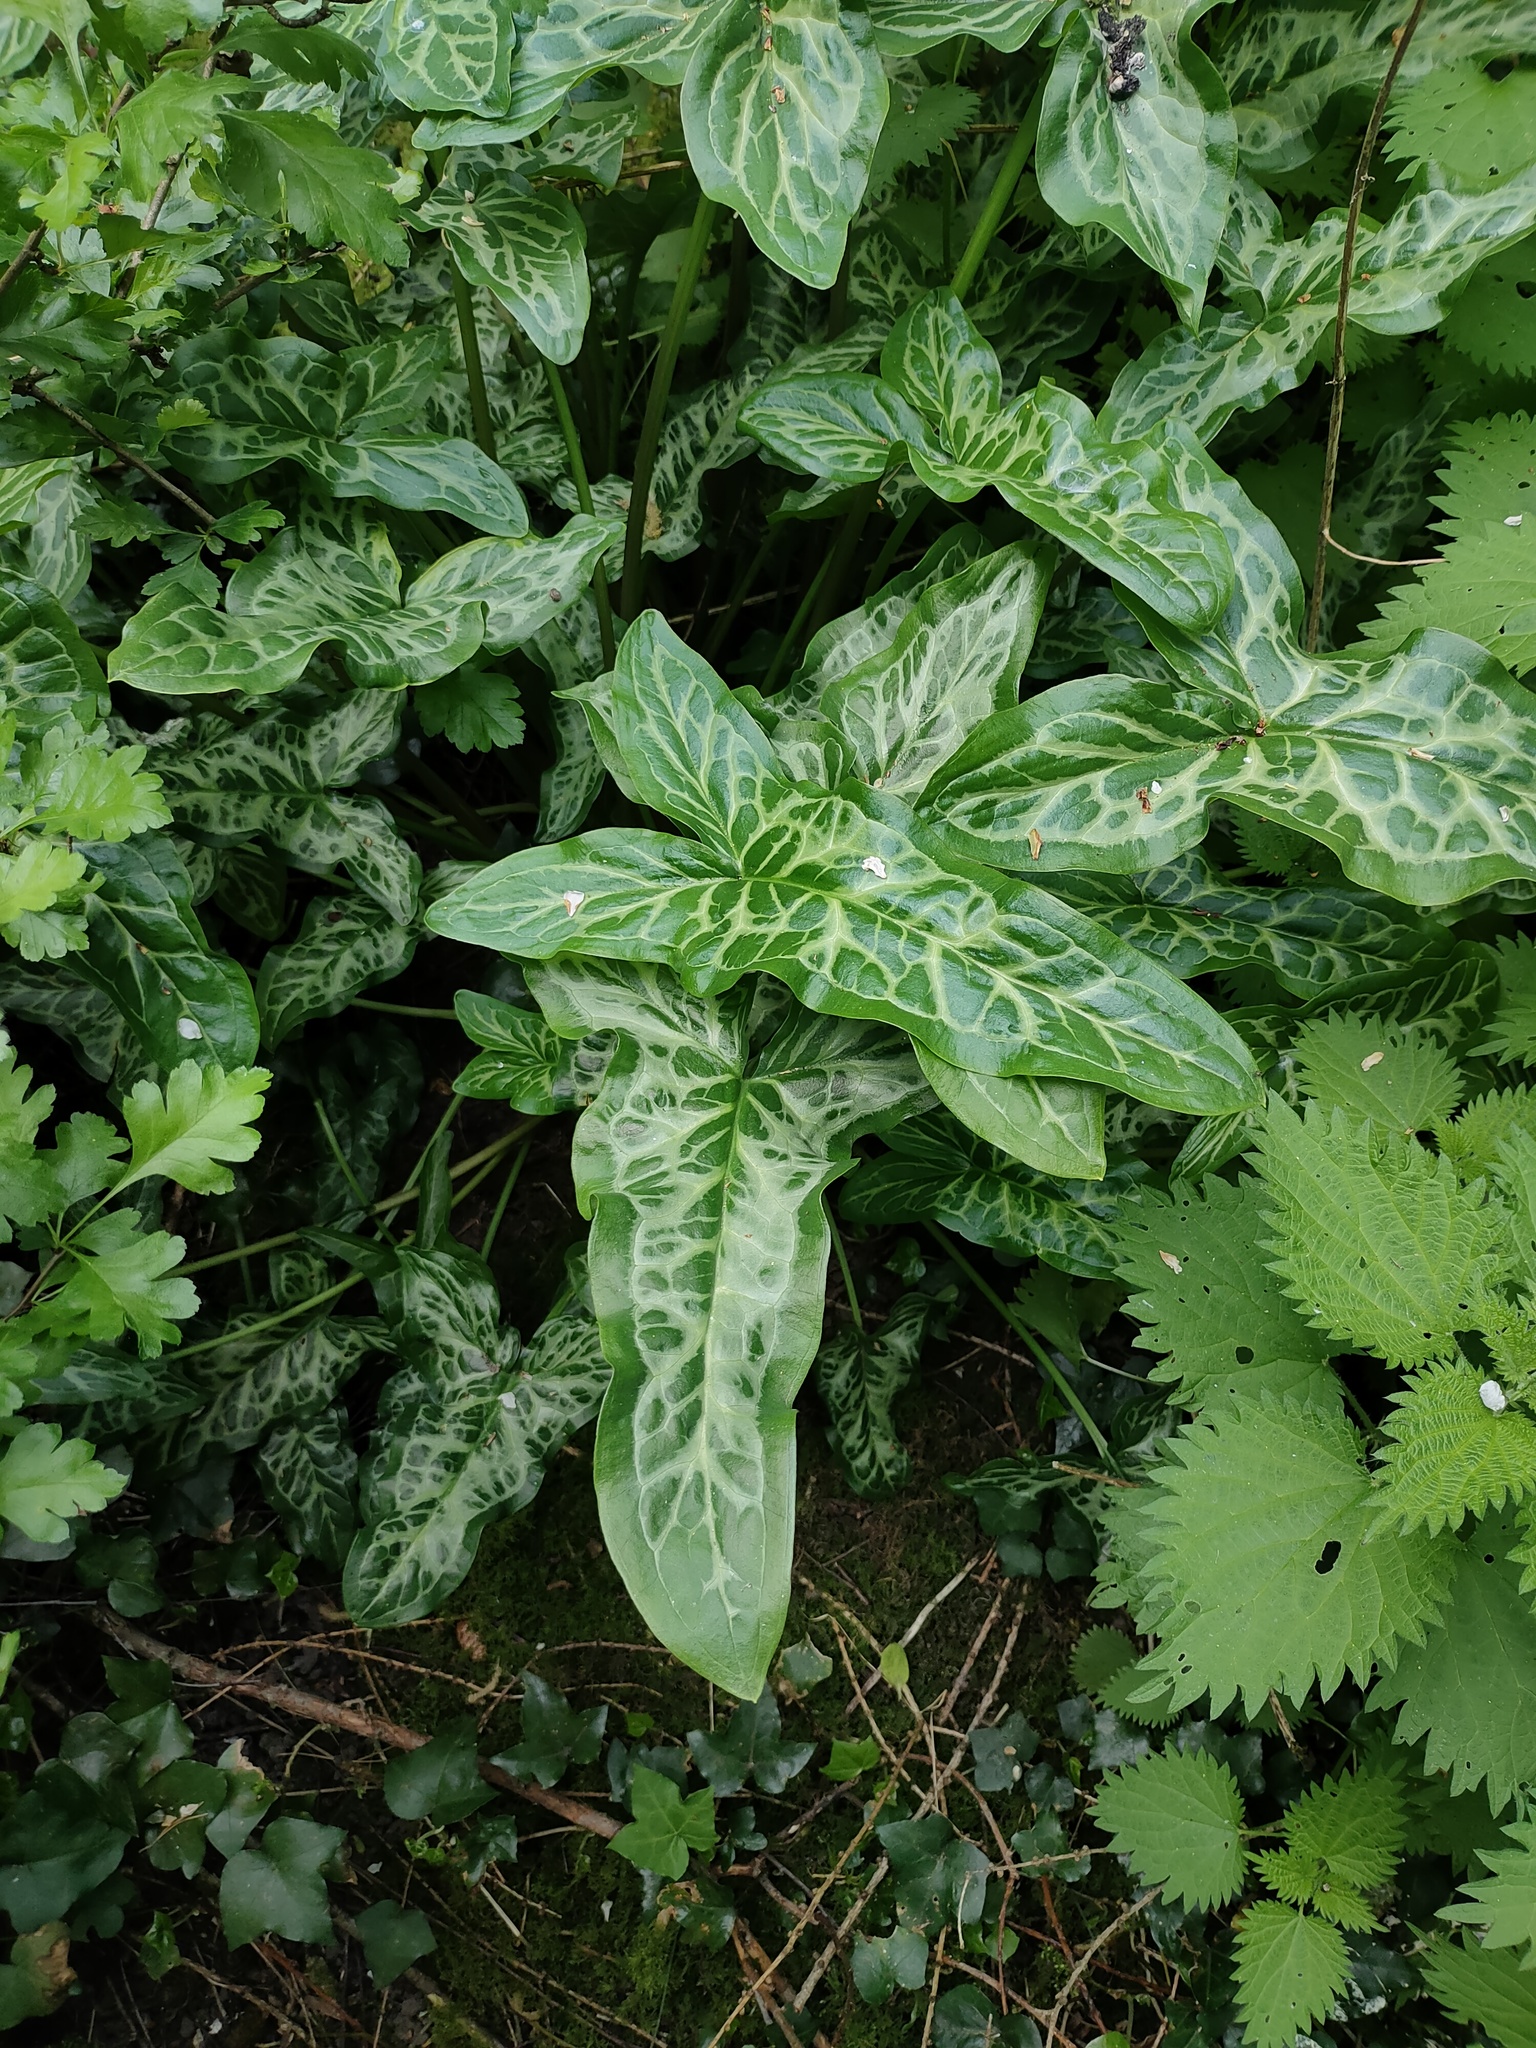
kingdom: Plantae
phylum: Tracheophyta
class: Liliopsida
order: Alismatales
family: Araceae
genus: Arum
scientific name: Arum italicum
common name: Italian lords-and-ladies
